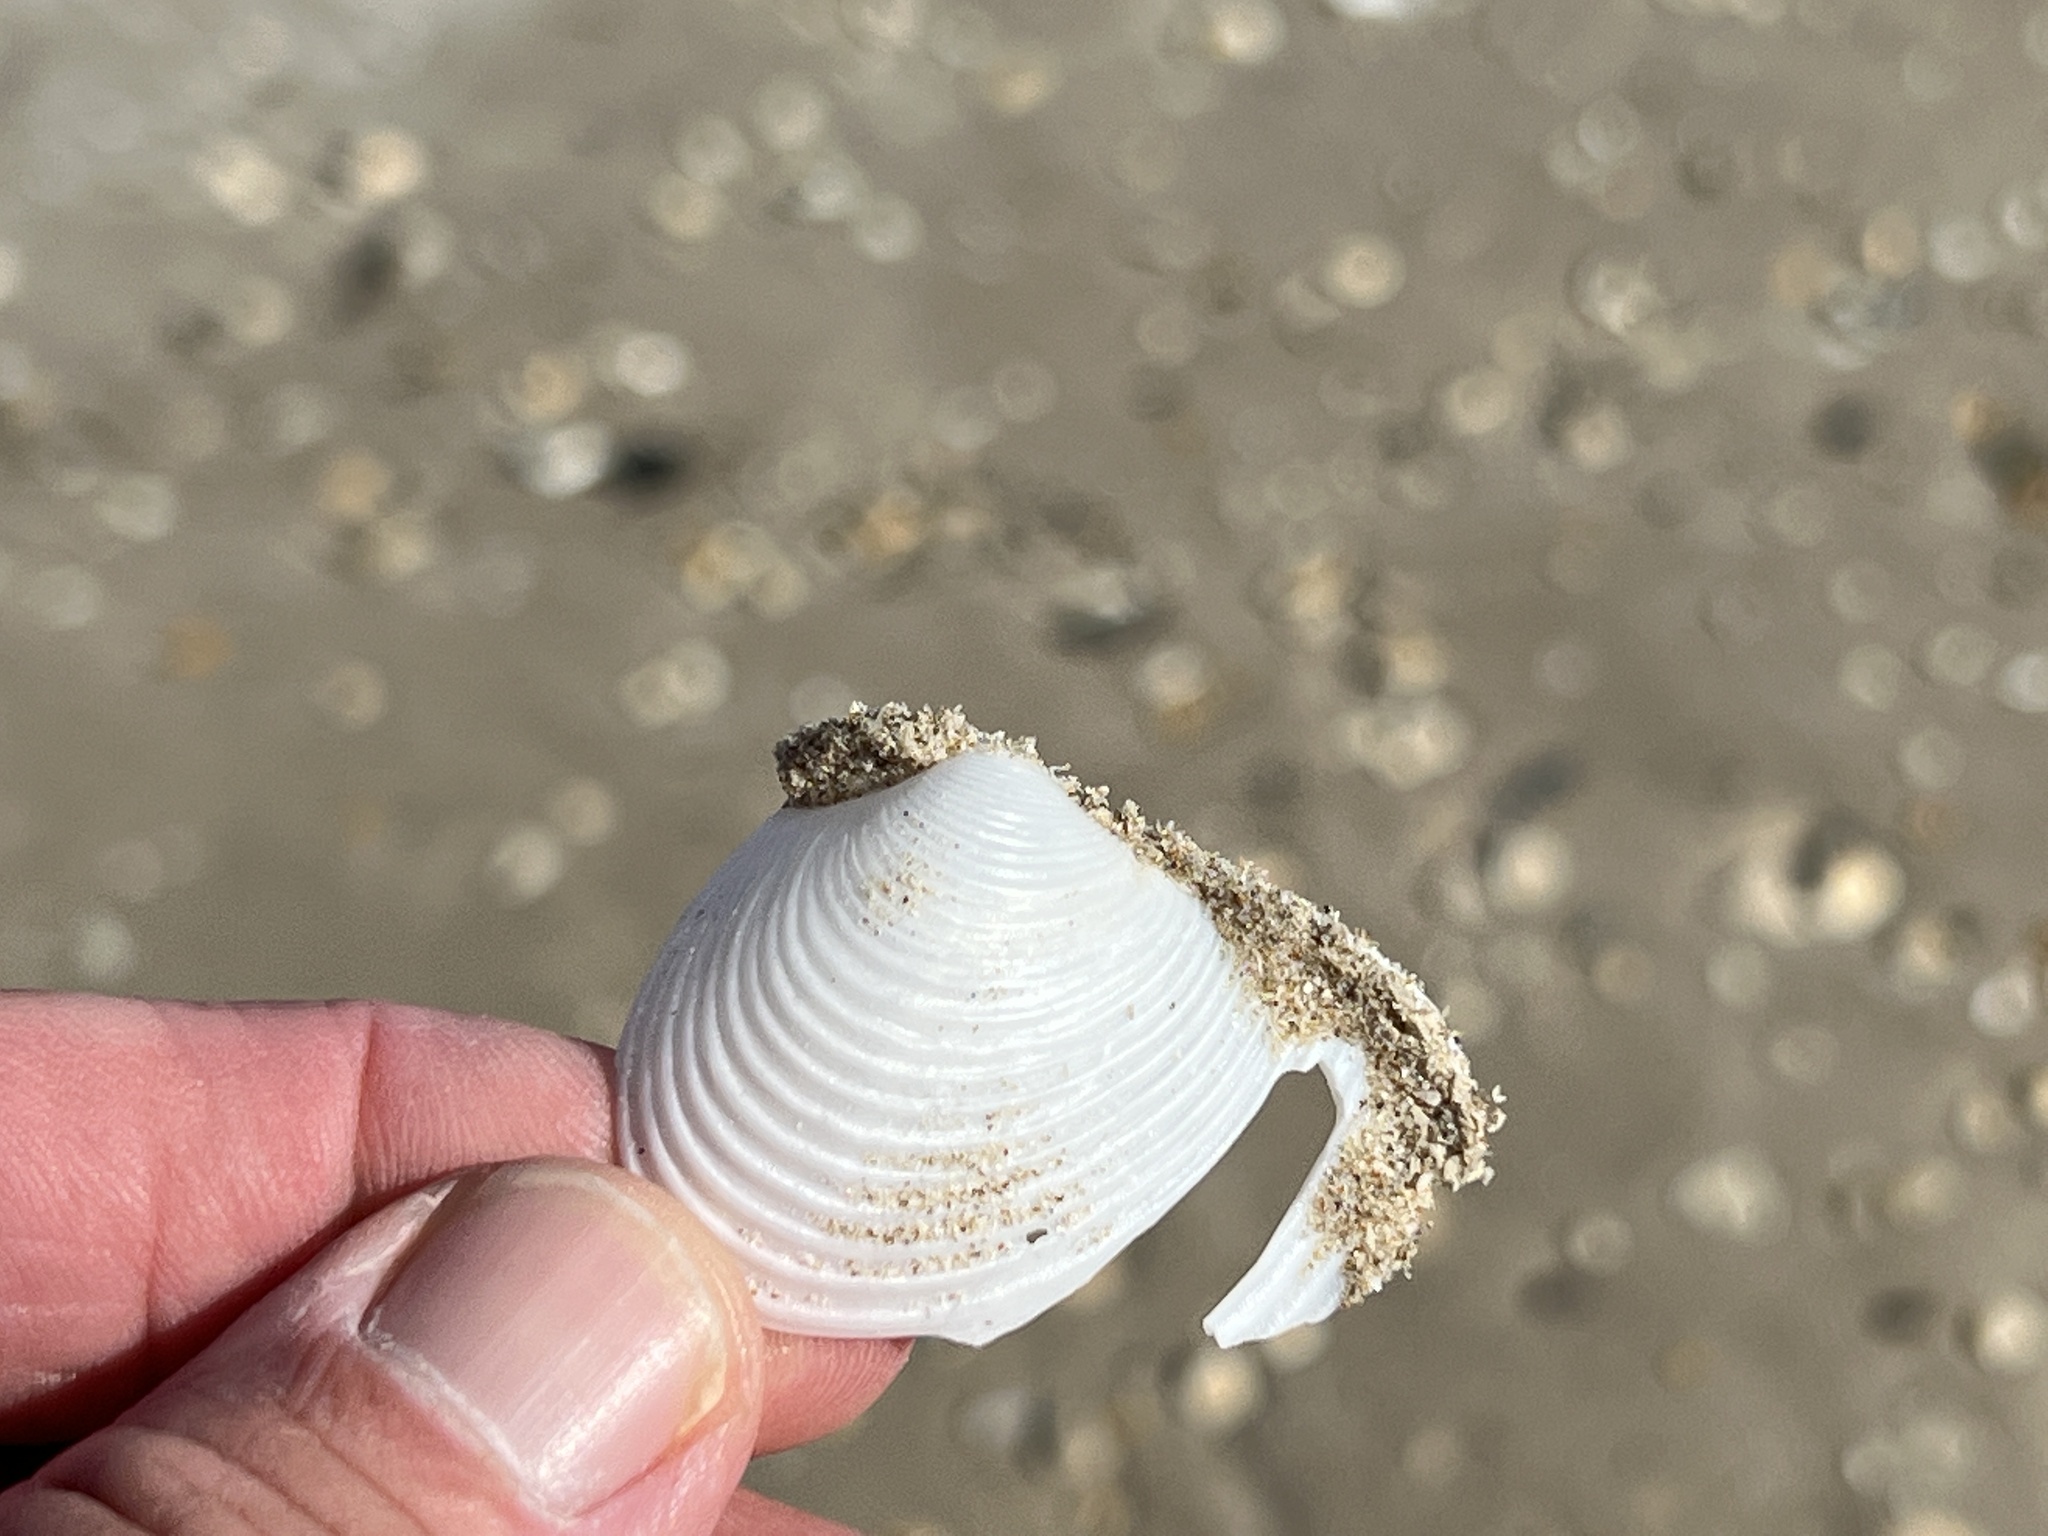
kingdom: Animalia
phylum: Mollusca
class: Bivalvia
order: Venerida
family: Anatinellidae
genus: Raeta
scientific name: Raeta plicatella
